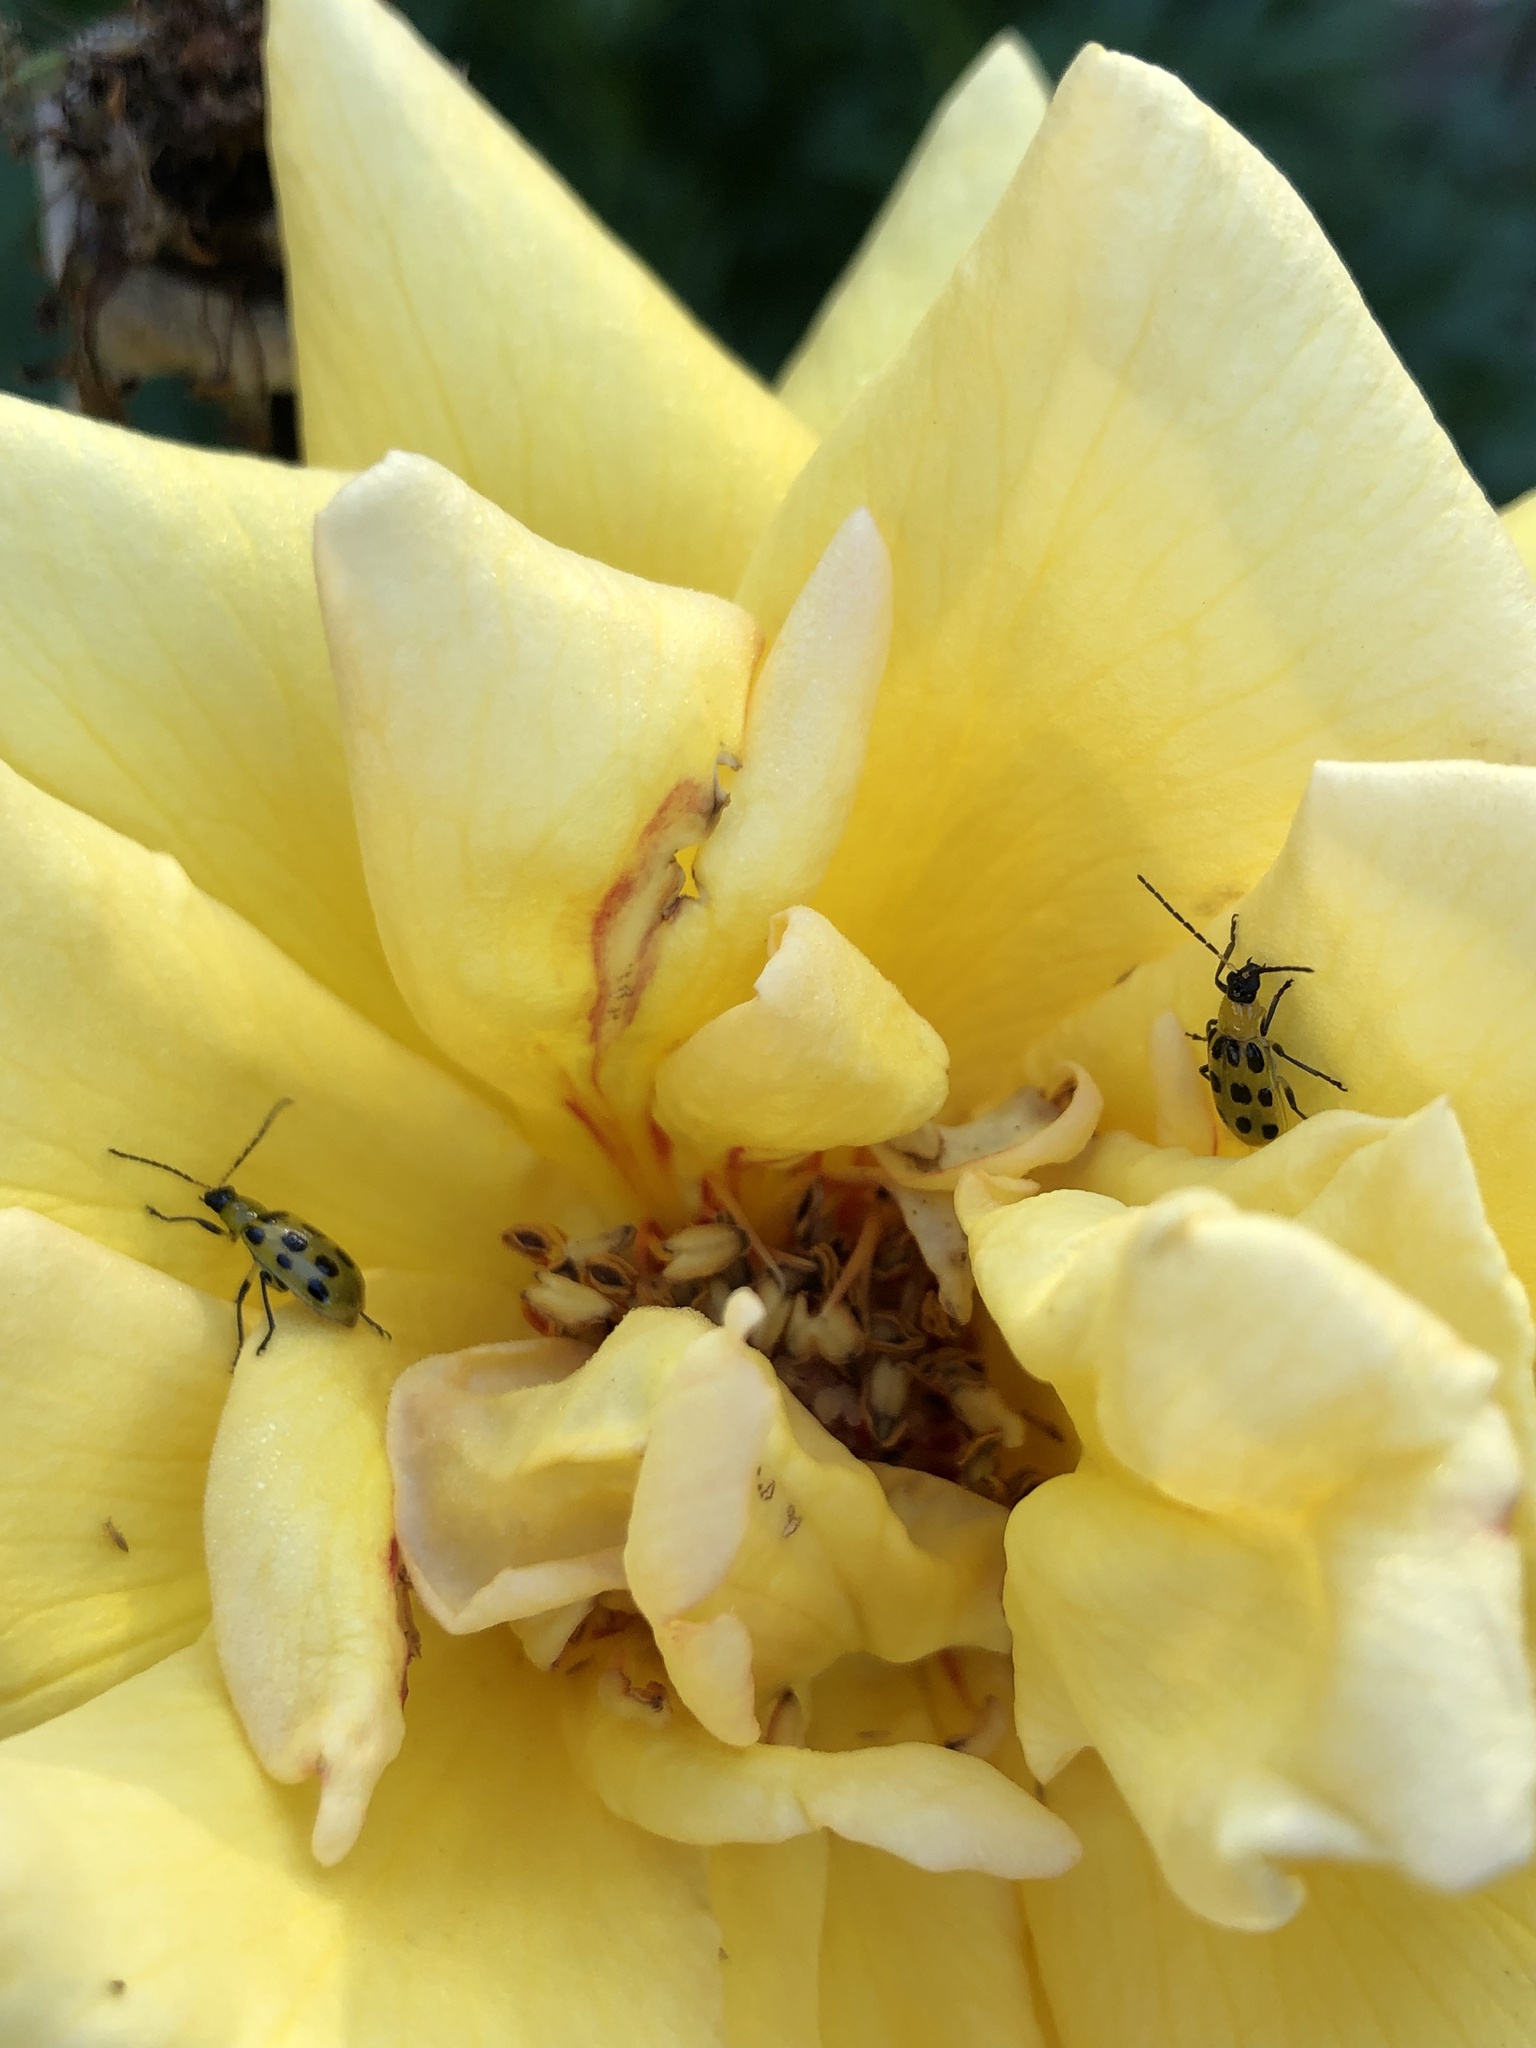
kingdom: Animalia
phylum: Arthropoda
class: Insecta
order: Coleoptera
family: Chrysomelidae
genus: Diabrotica
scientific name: Diabrotica undecimpunctata
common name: Spotted cucumber beetle
